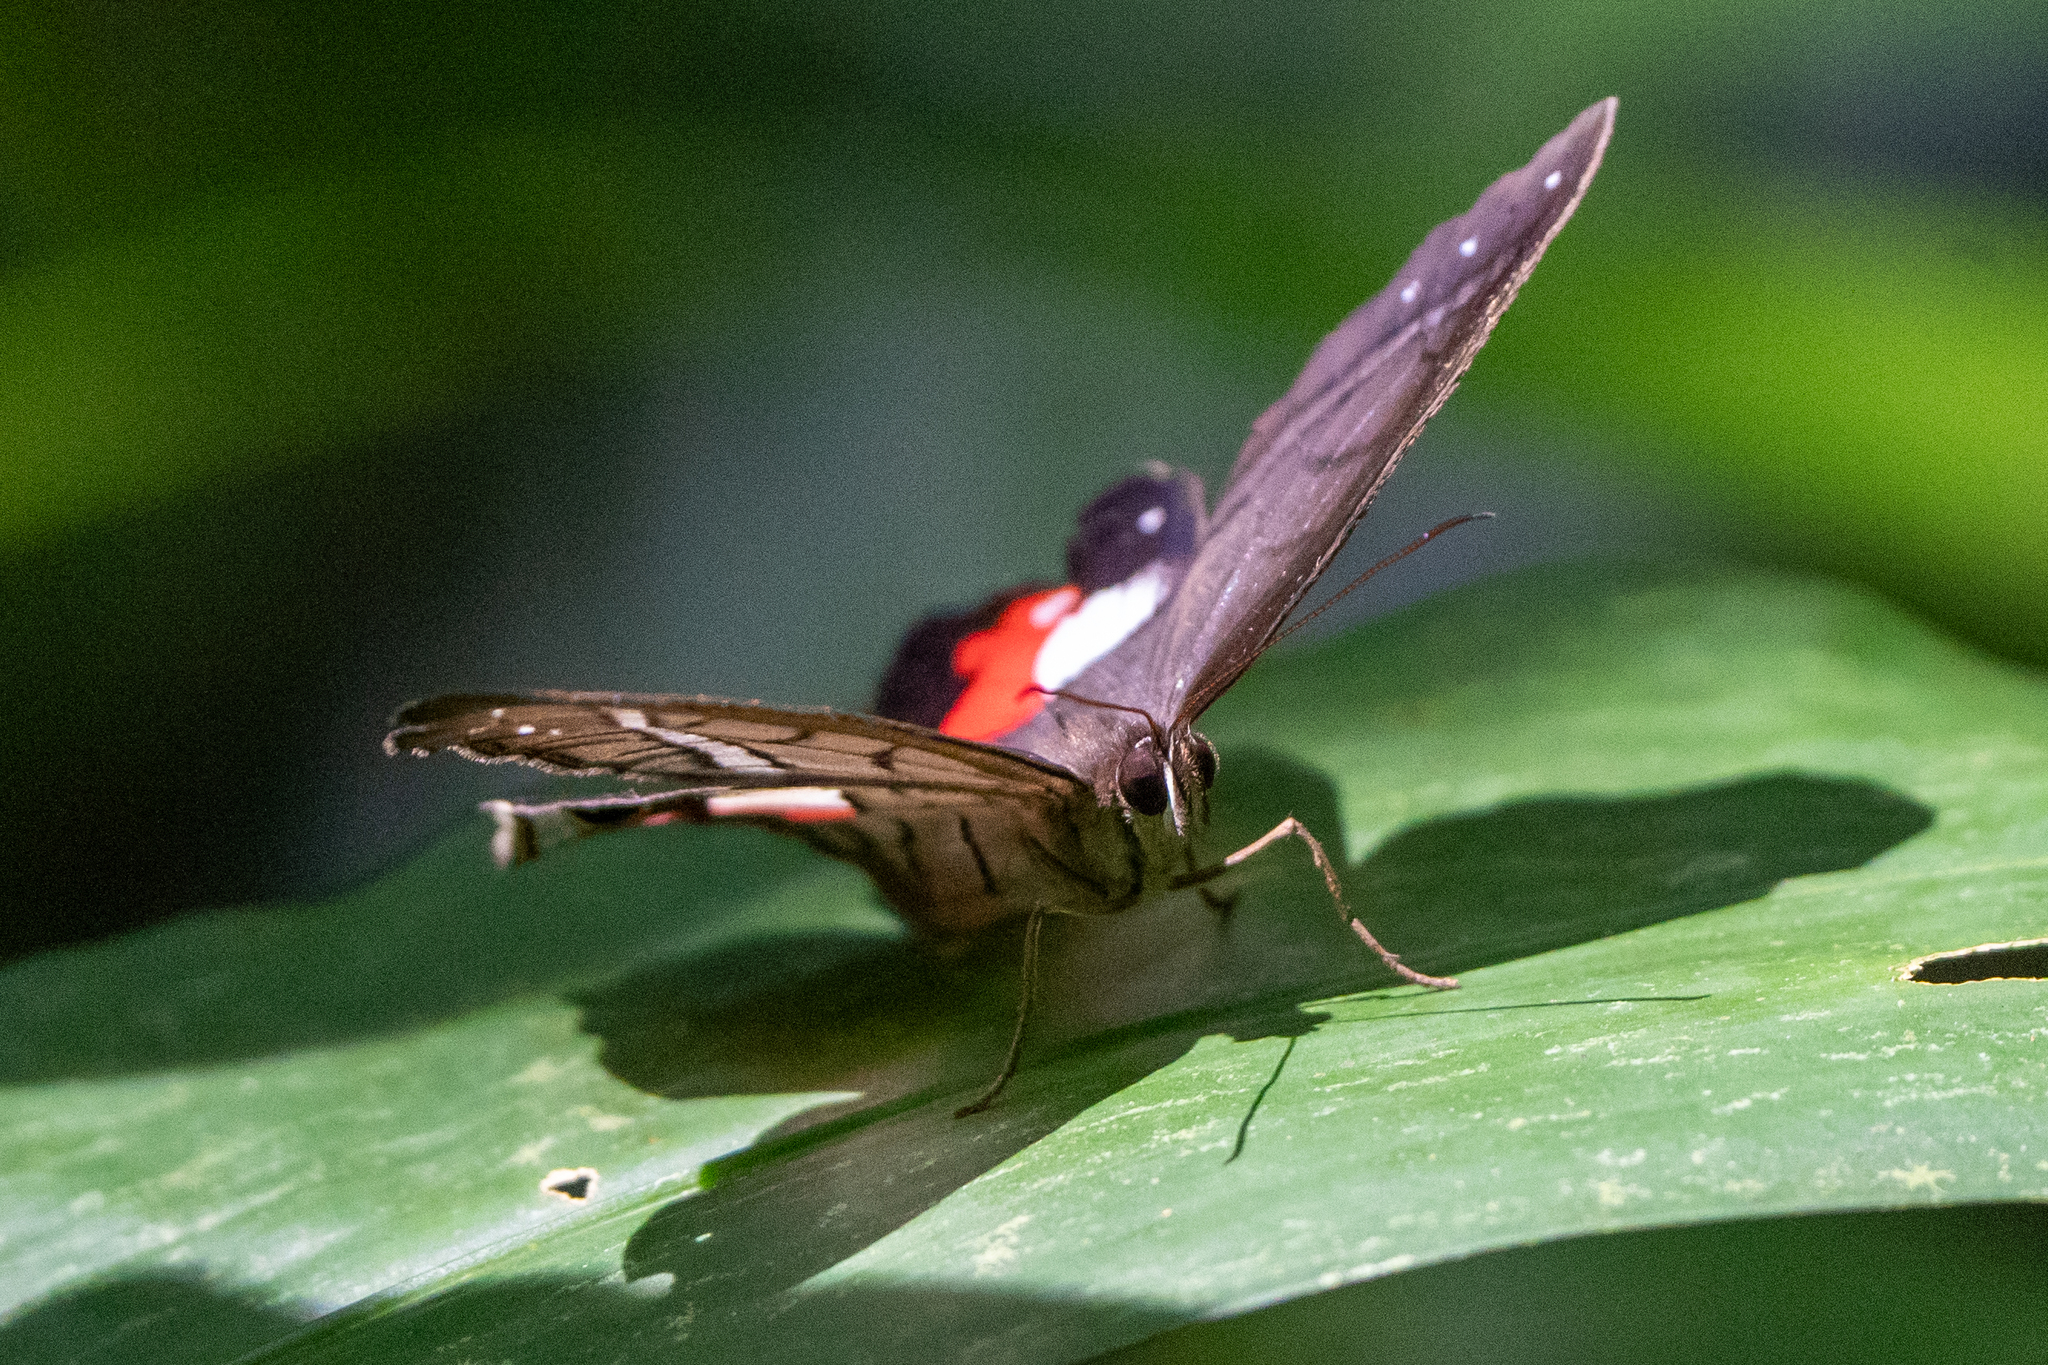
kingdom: Animalia
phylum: Arthropoda
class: Insecta
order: Lepidoptera
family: Nymphalidae
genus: Pierella
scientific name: Pierella helvina
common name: Red-washed satyr
